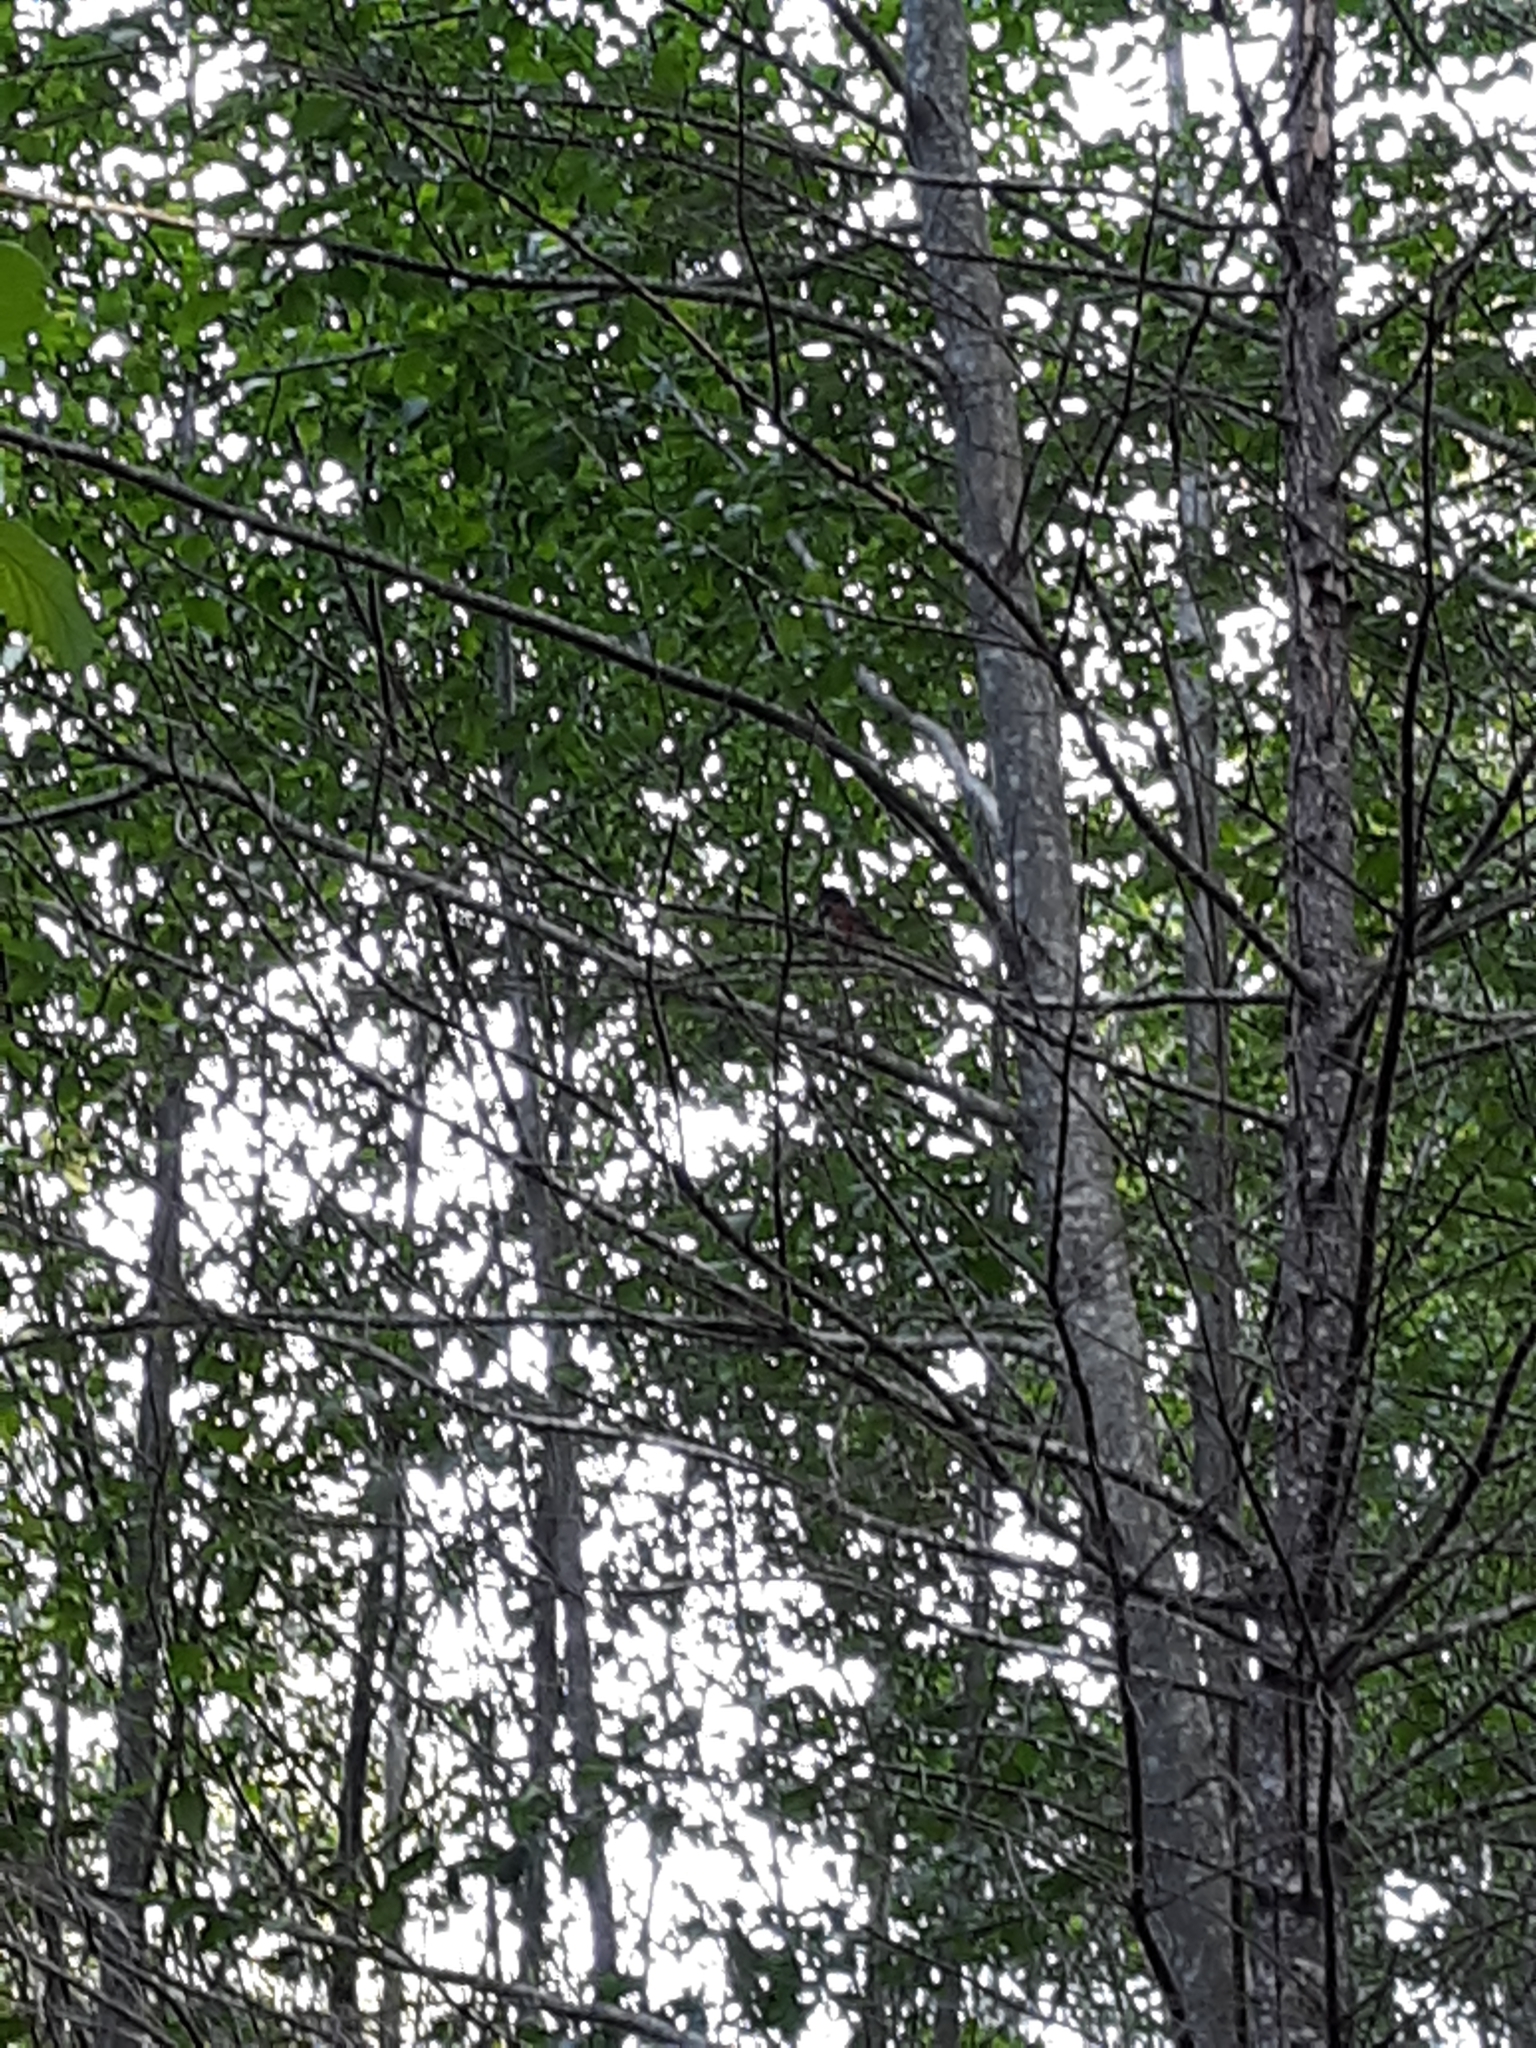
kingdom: Animalia
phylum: Chordata
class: Aves
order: Passeriformes
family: Passerellidae
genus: Pipilo
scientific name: Pipilo maculatus
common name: Spotted towhee
